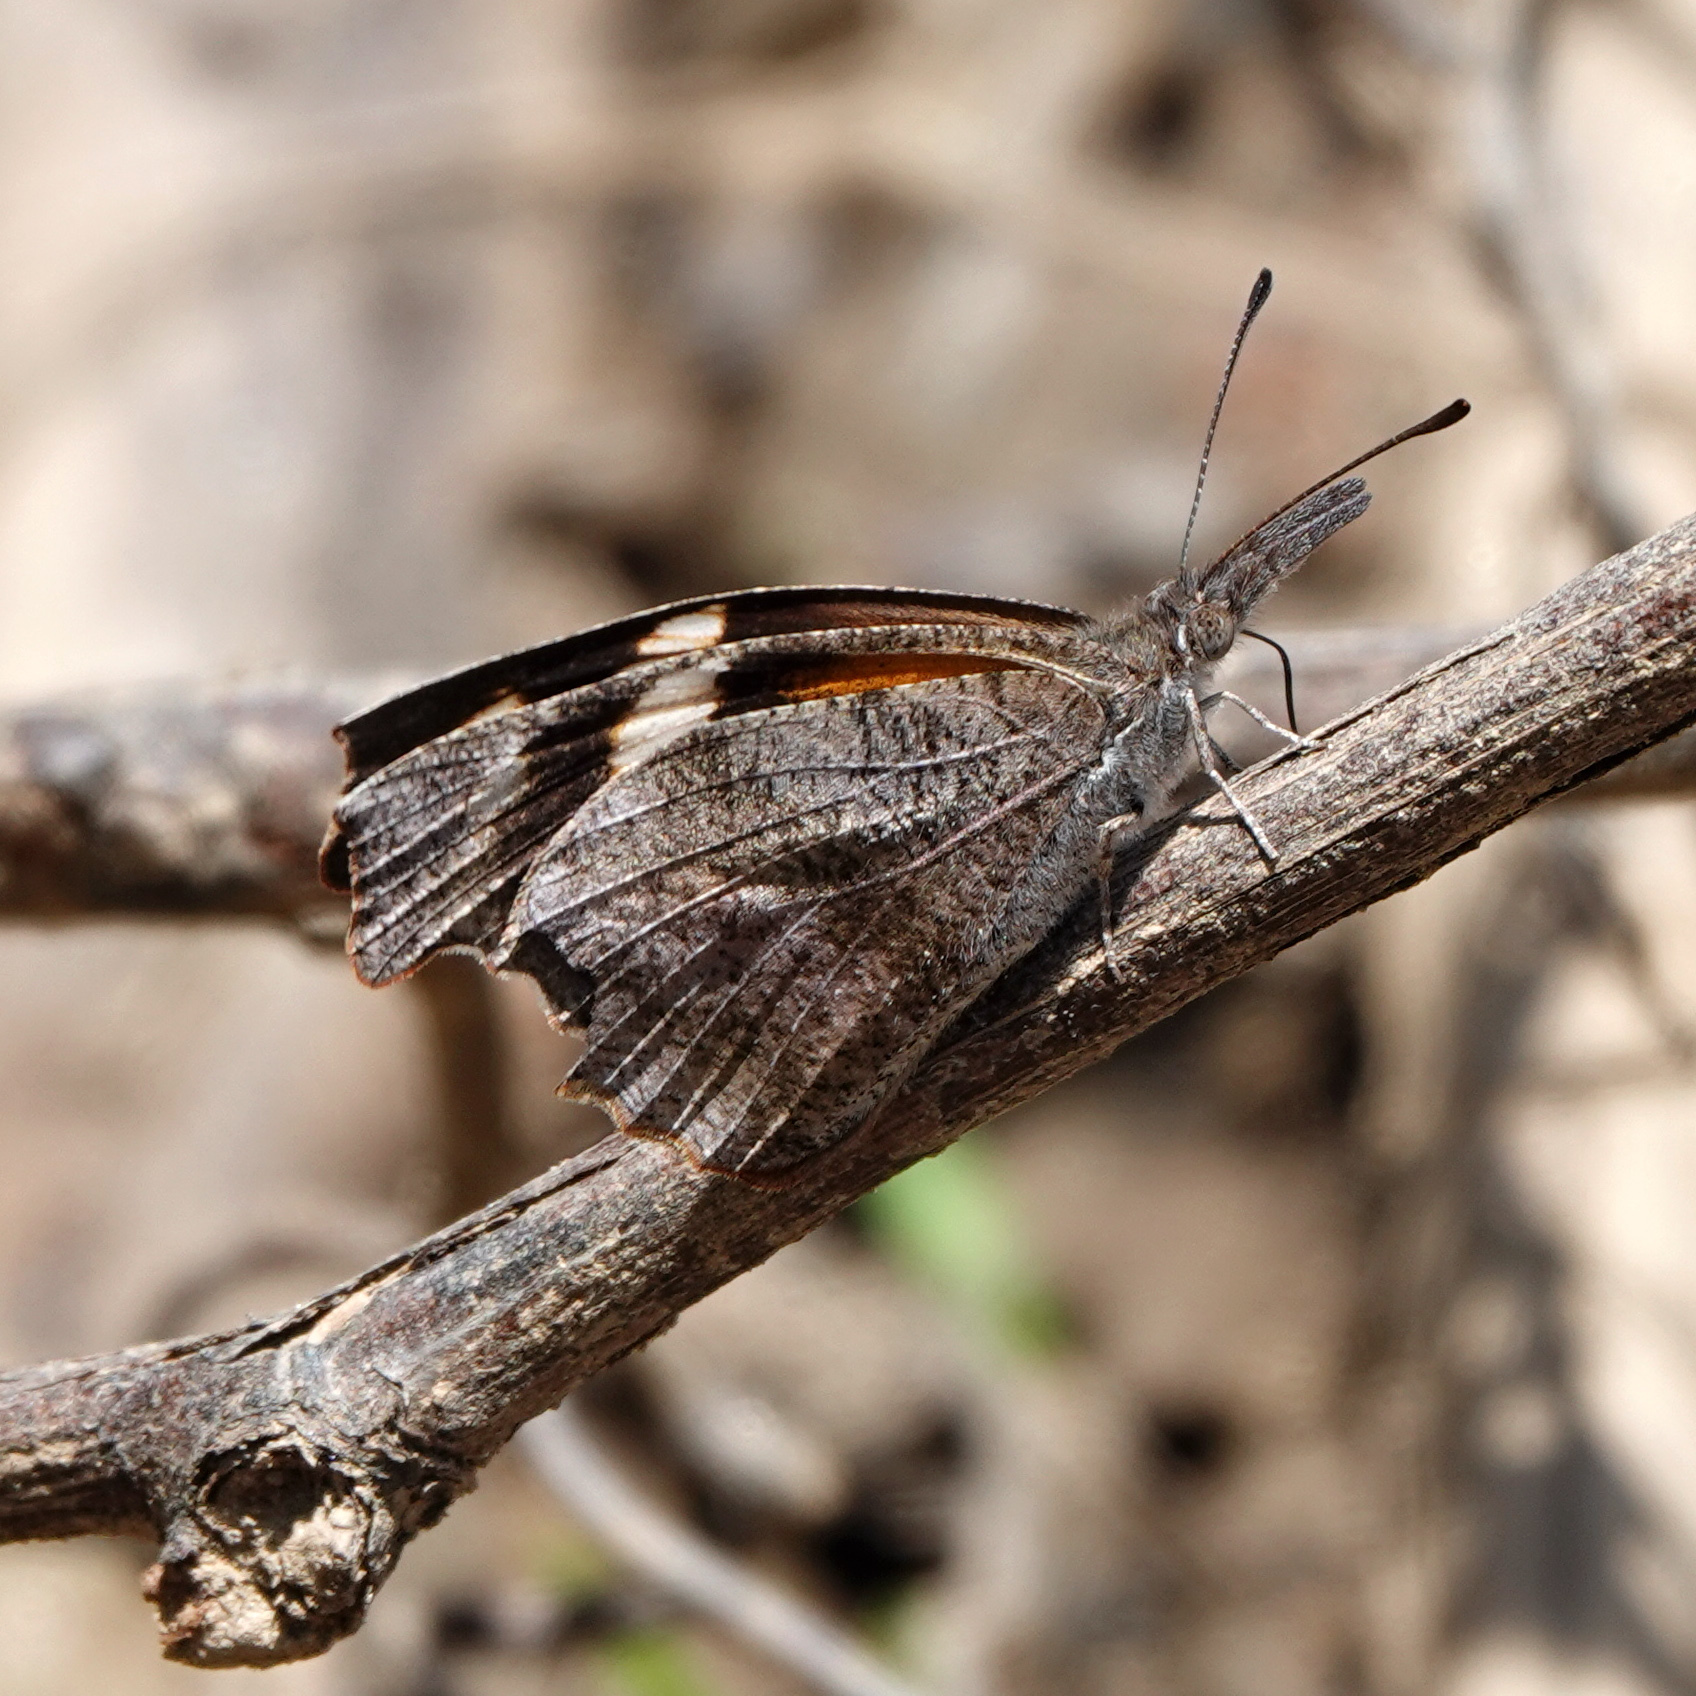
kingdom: Animalia
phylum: Arthropoda
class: Insecta
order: Lepidoptera
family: Nymphalidae
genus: Libytheana
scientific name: Libytheana carinenta
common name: American snout
